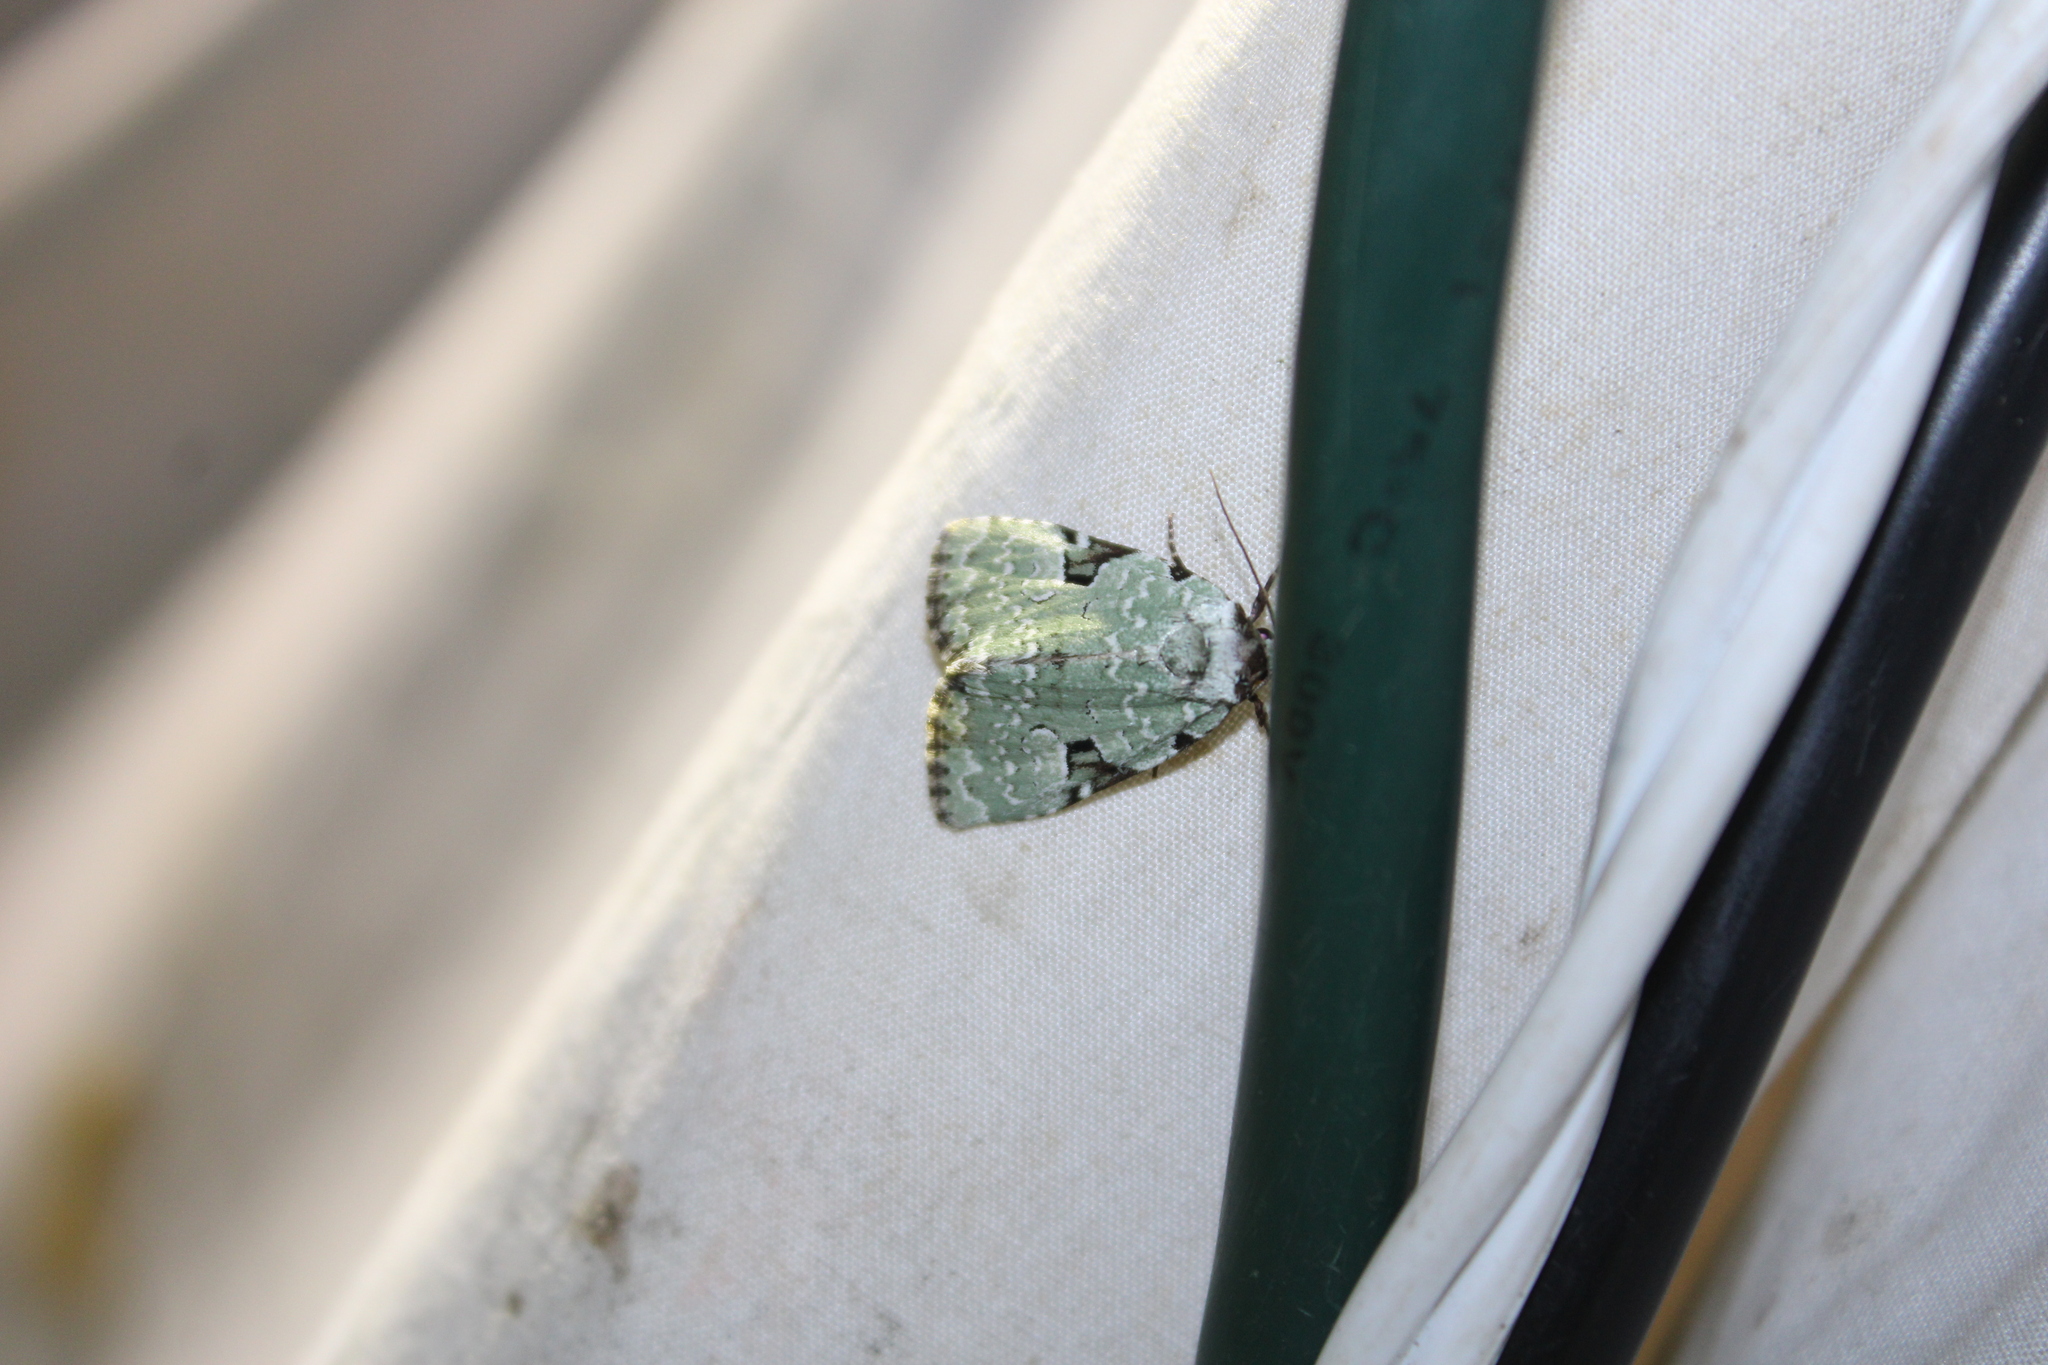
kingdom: Animalia
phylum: Arthropoda
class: Insecta
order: Lepidoptera
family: Noctuidae
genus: Leuconycta
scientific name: Leuconycta diphteroides
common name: Green leuconycta moth
